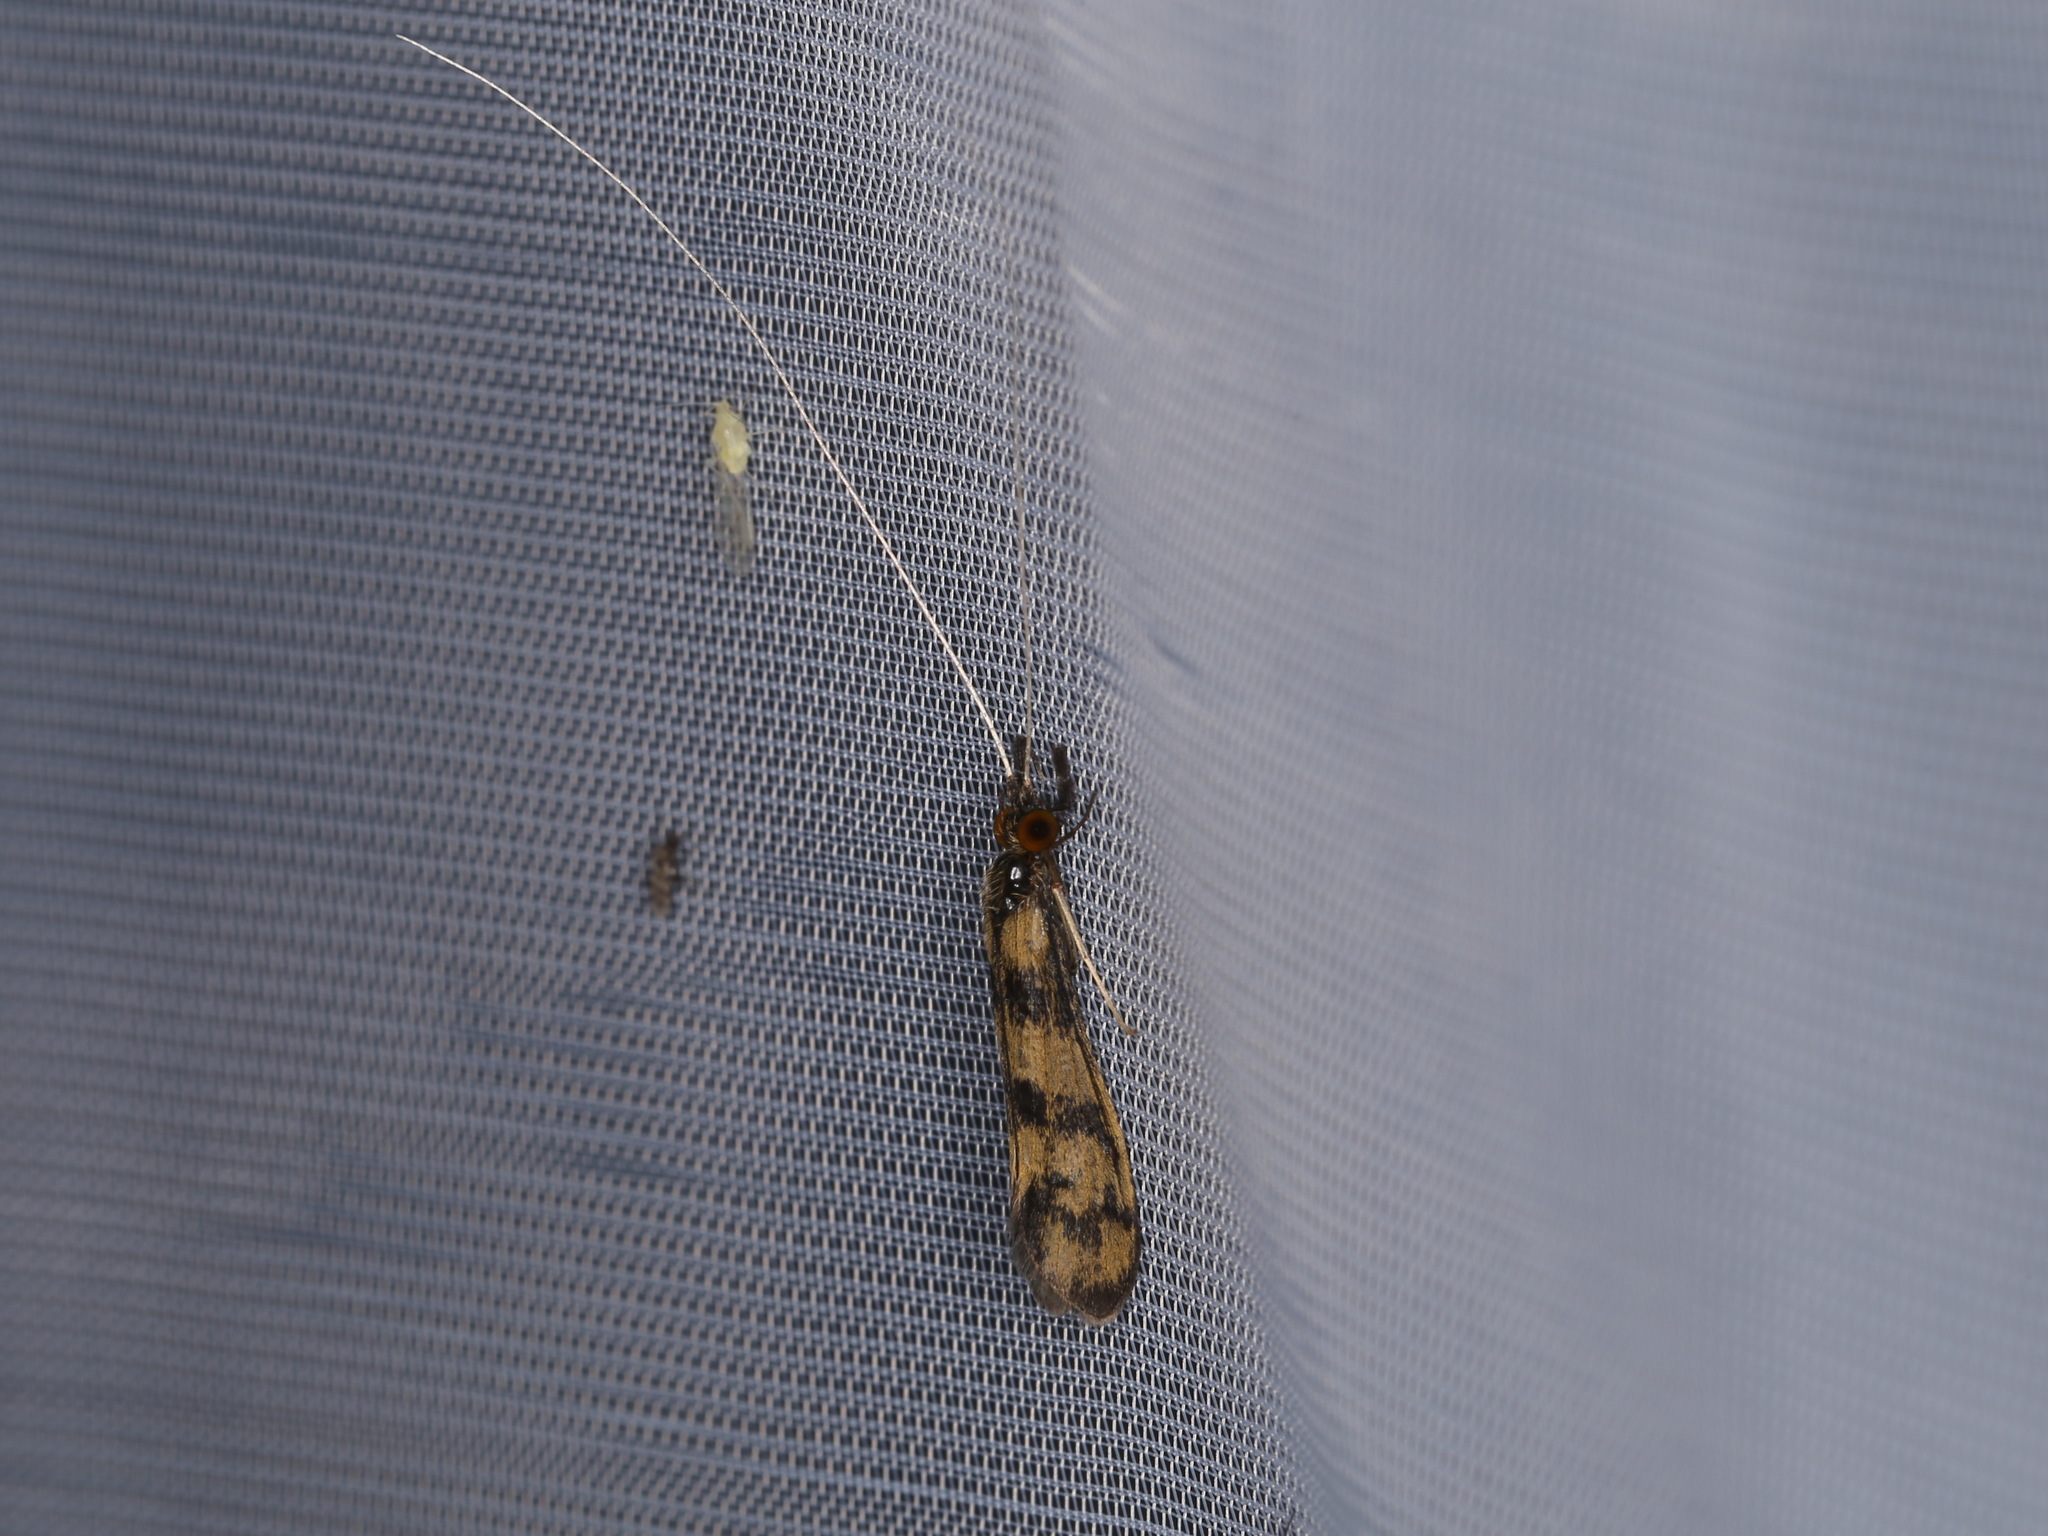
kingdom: Animalia
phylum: Arthropoda
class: Insecta
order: Trichoptera
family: Leptoceridae
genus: Mystacides
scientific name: Mystacides longicornis
